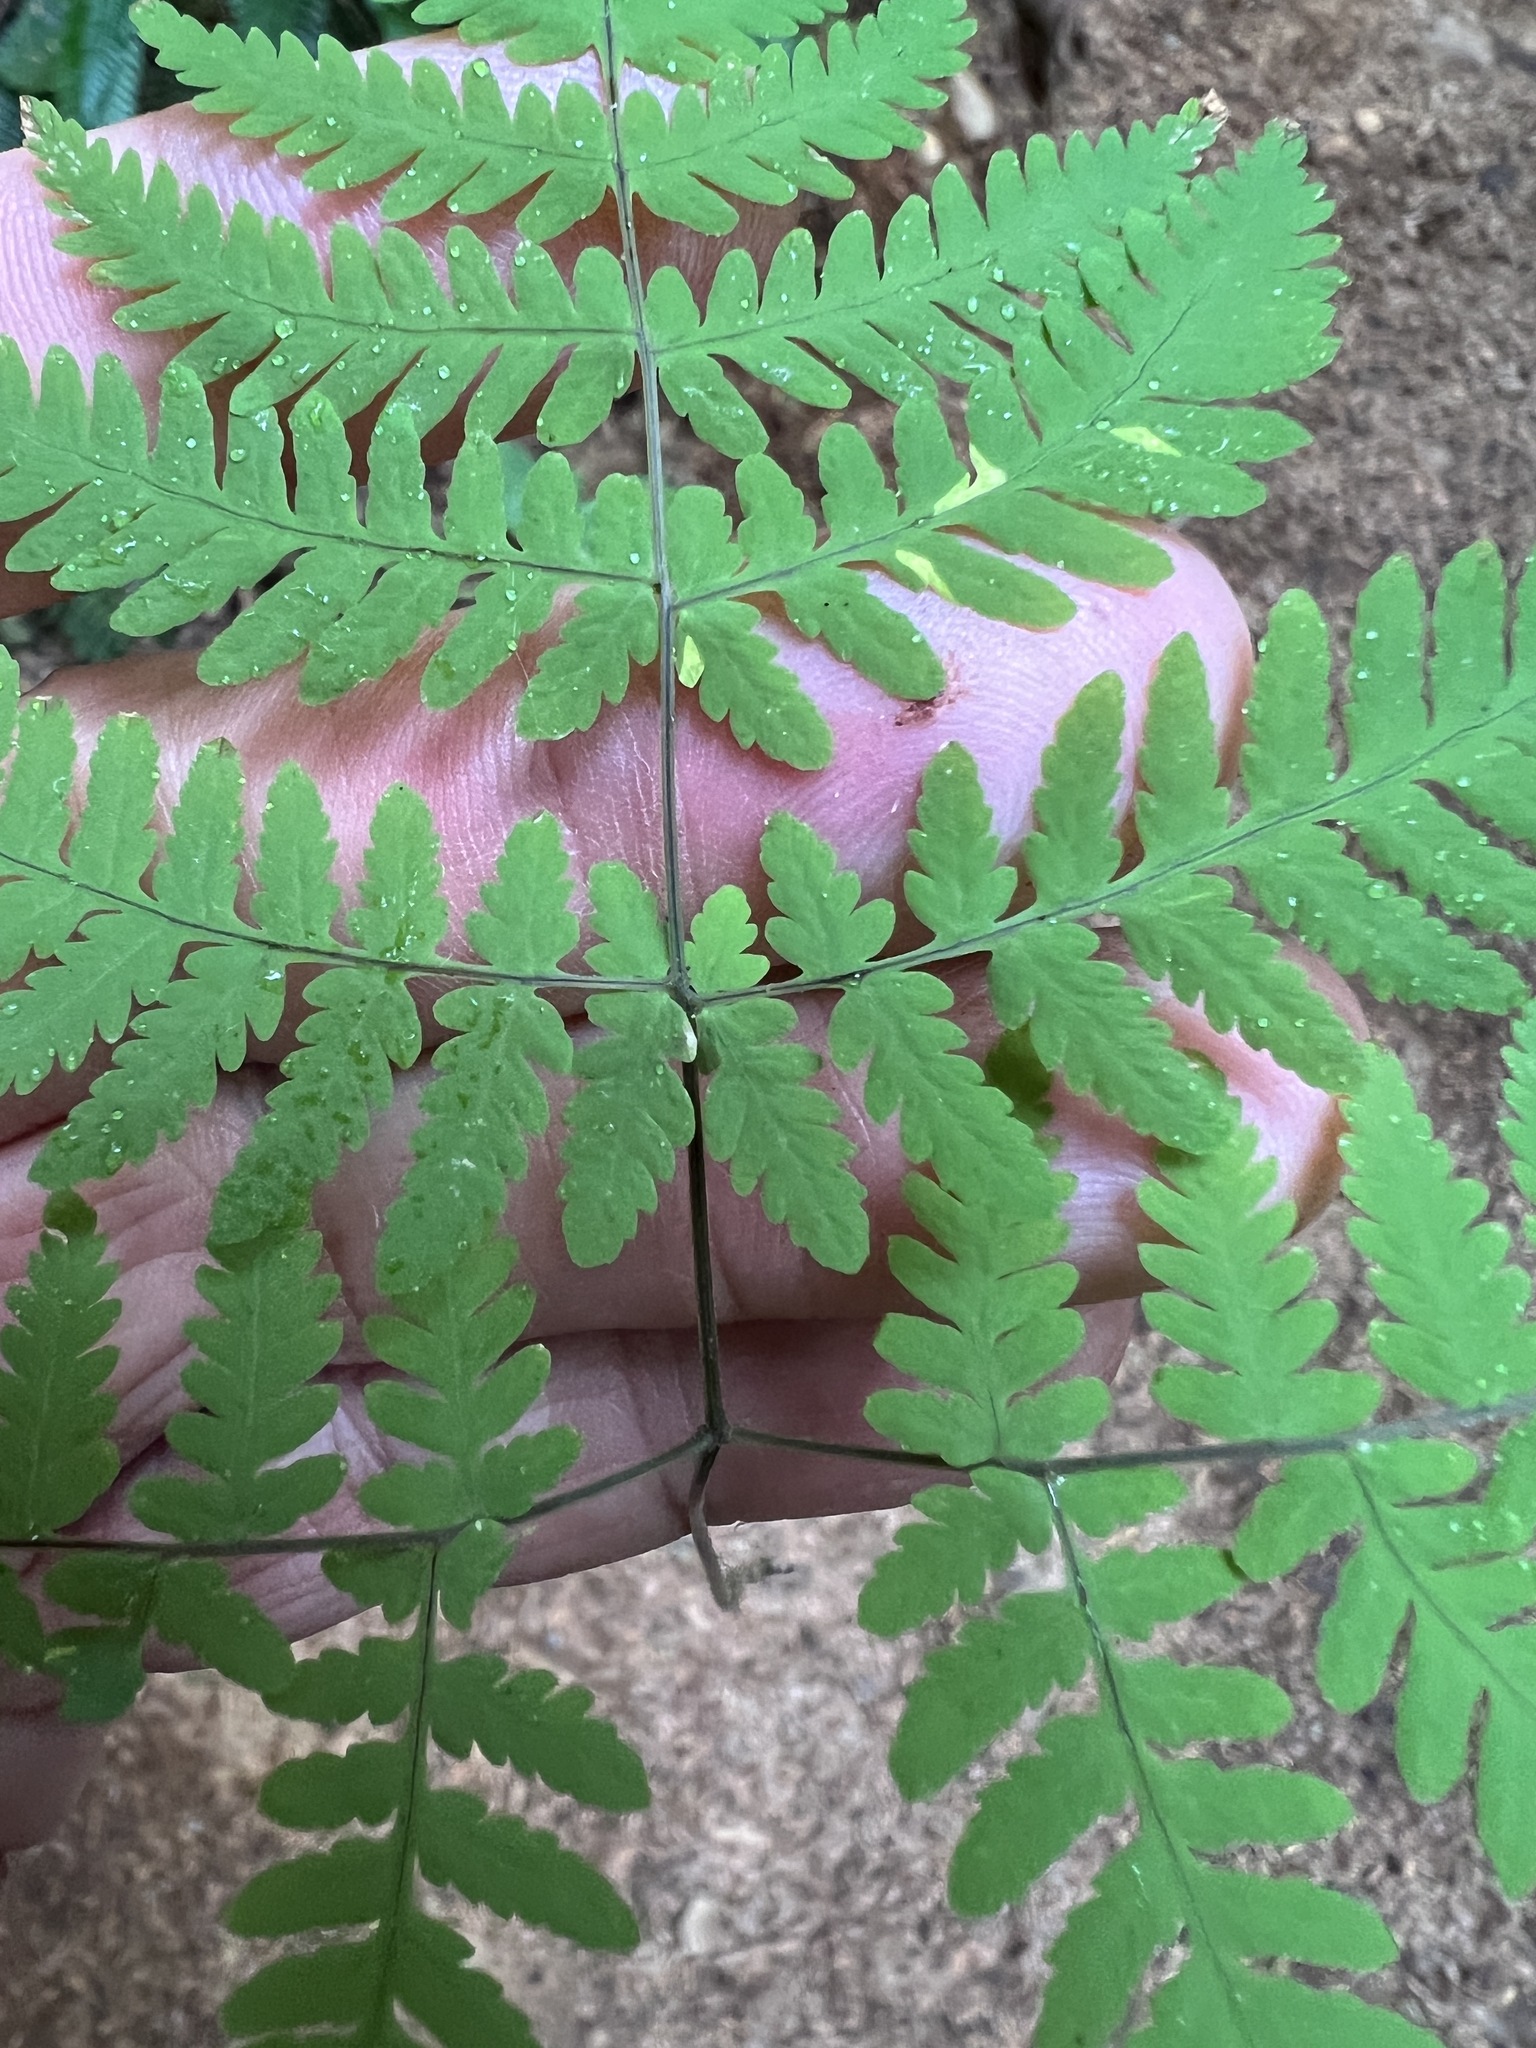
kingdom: Plantae
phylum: Tracheophyta
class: Polypodiopsida
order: Polypodiales
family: Cystopteridaceae
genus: Gymnocarpium
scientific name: Gymnocarpium disjunctum
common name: Western oak fern
